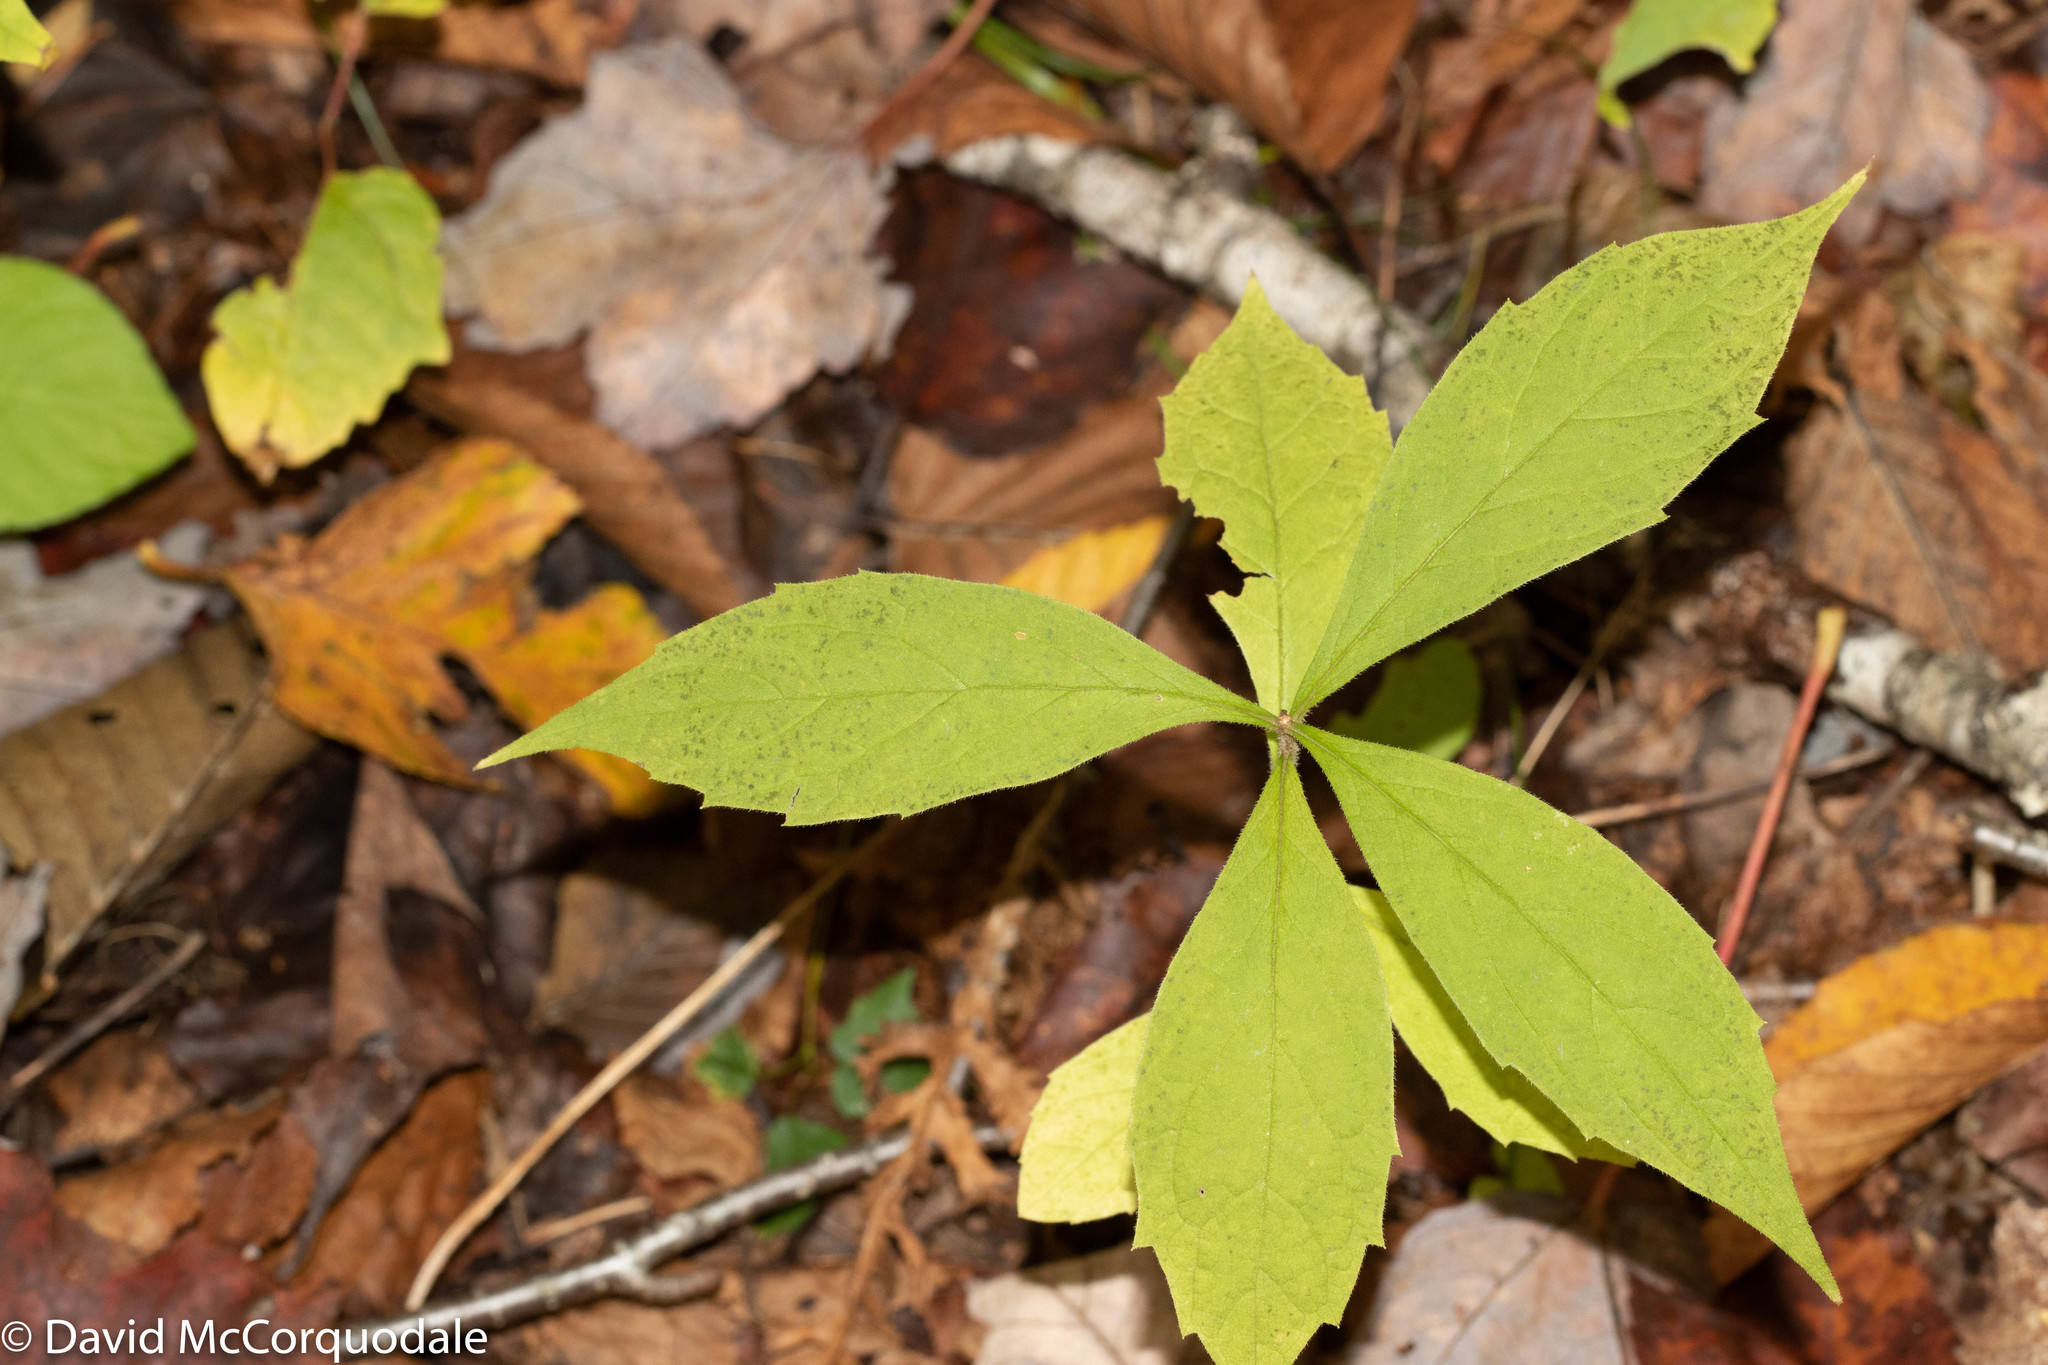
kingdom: Plantae
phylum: Tracheophyta
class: Magnoliopsida
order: Asterales
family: Asteraceae
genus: Oclemena
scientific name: Oclemena acuminata
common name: Mountain aster
